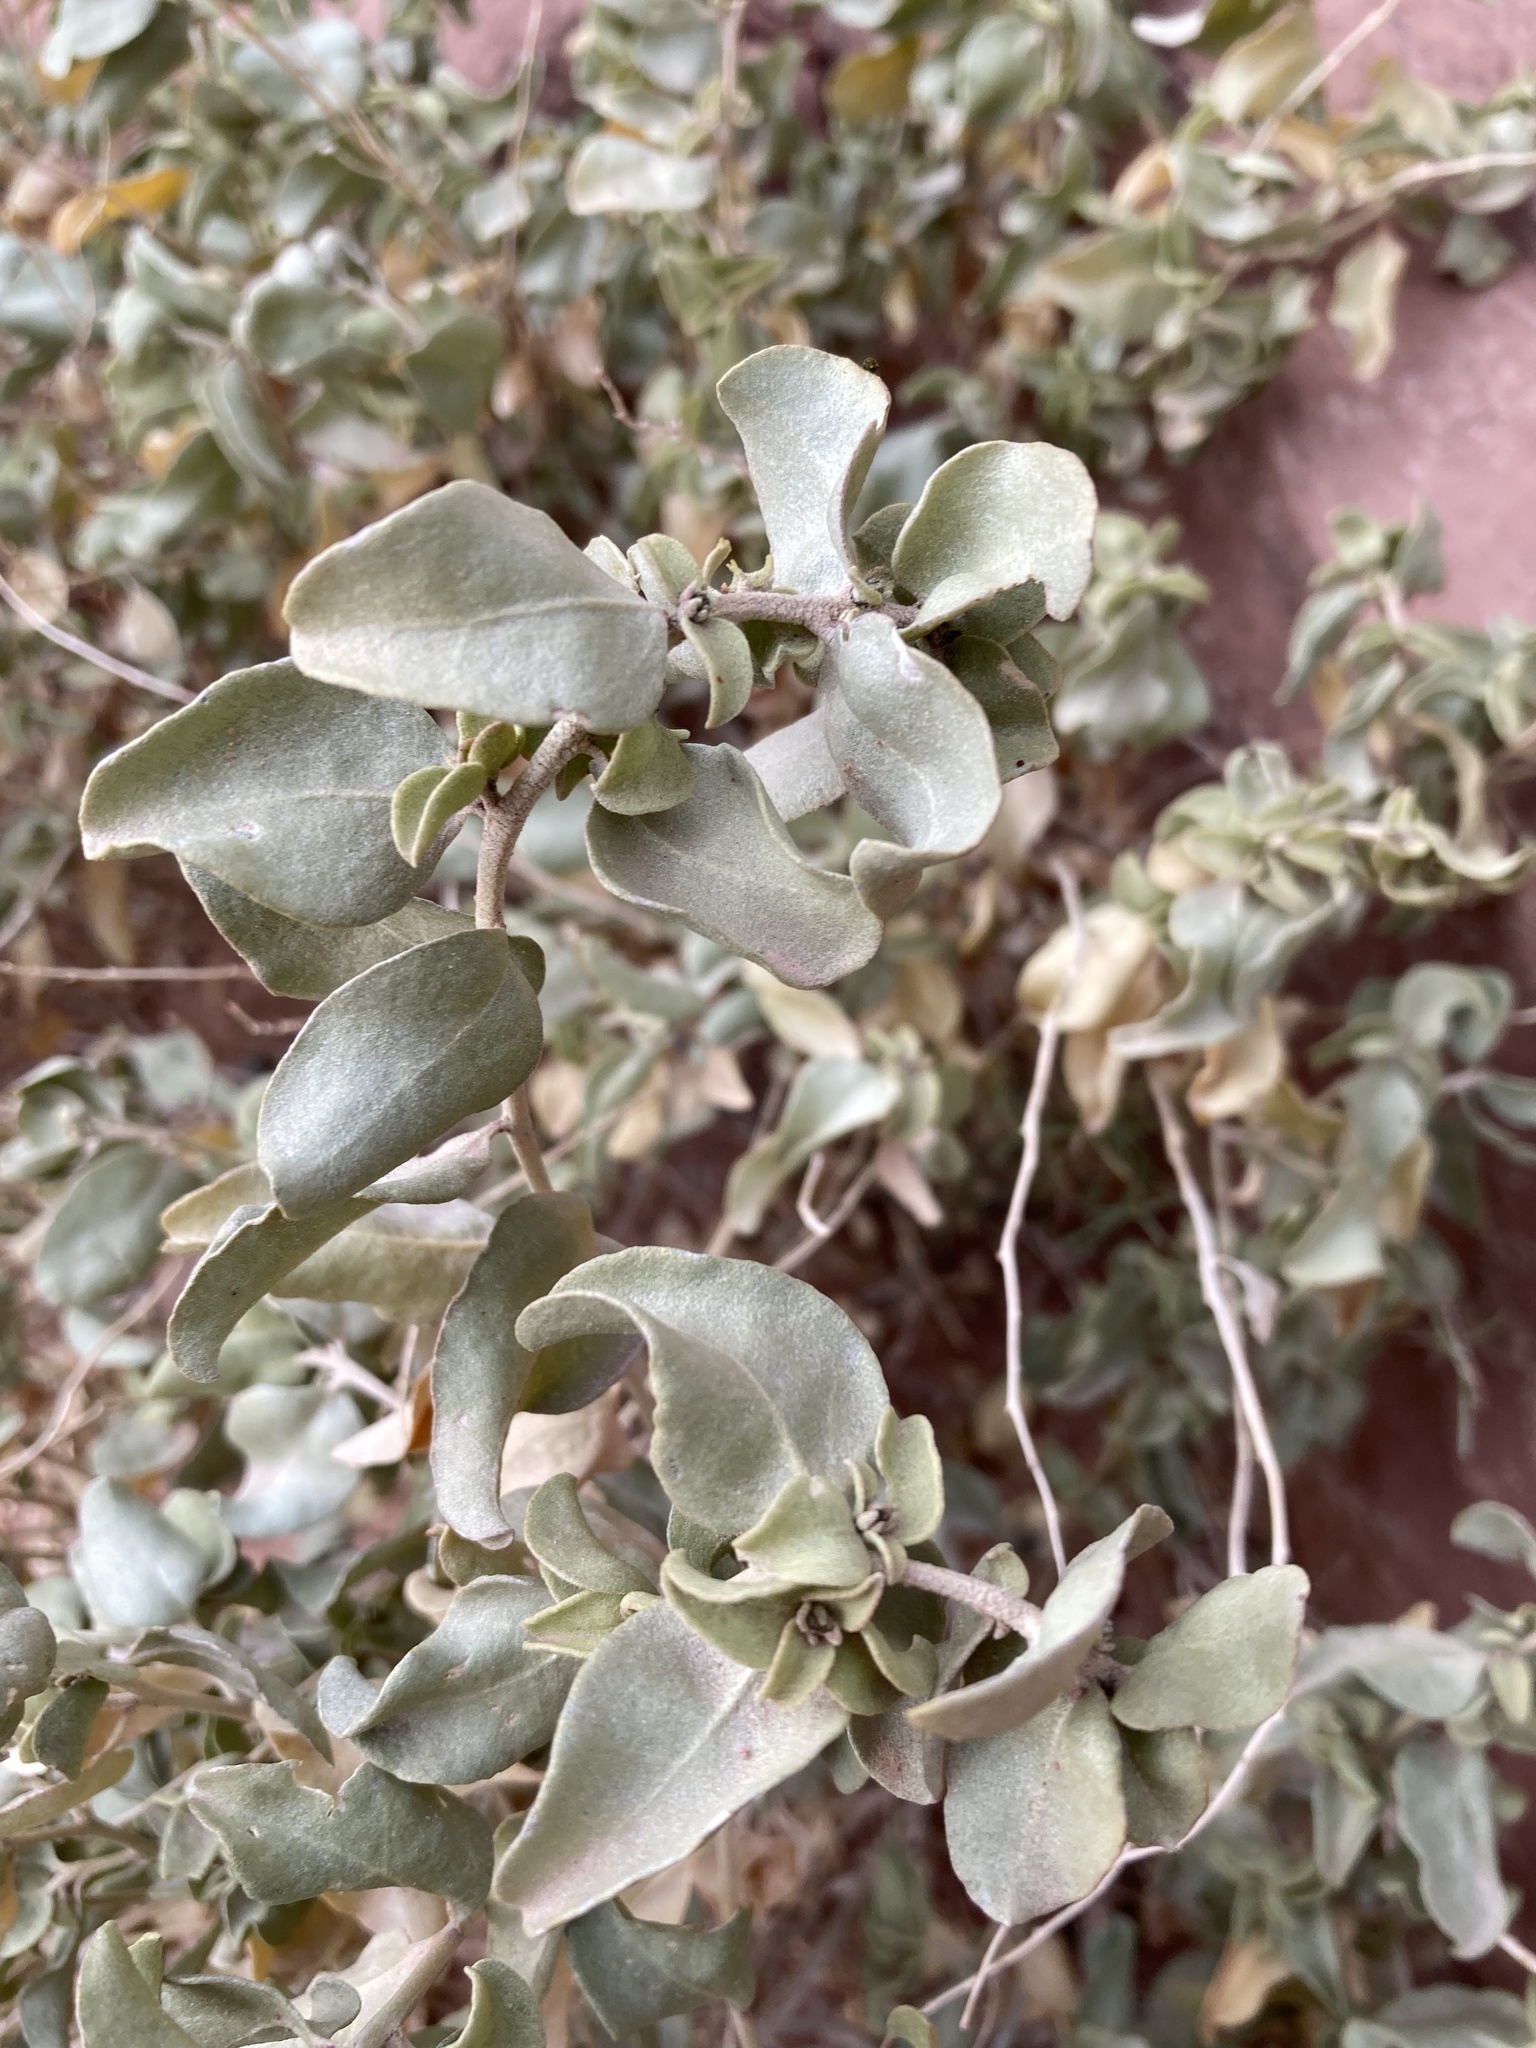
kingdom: Plantae
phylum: Tracheophyta
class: Magnoliopsida
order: Caryophyllales
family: Amaranthaceae
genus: Atriplex
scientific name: Atriplex confertifolia
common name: Shadscale
